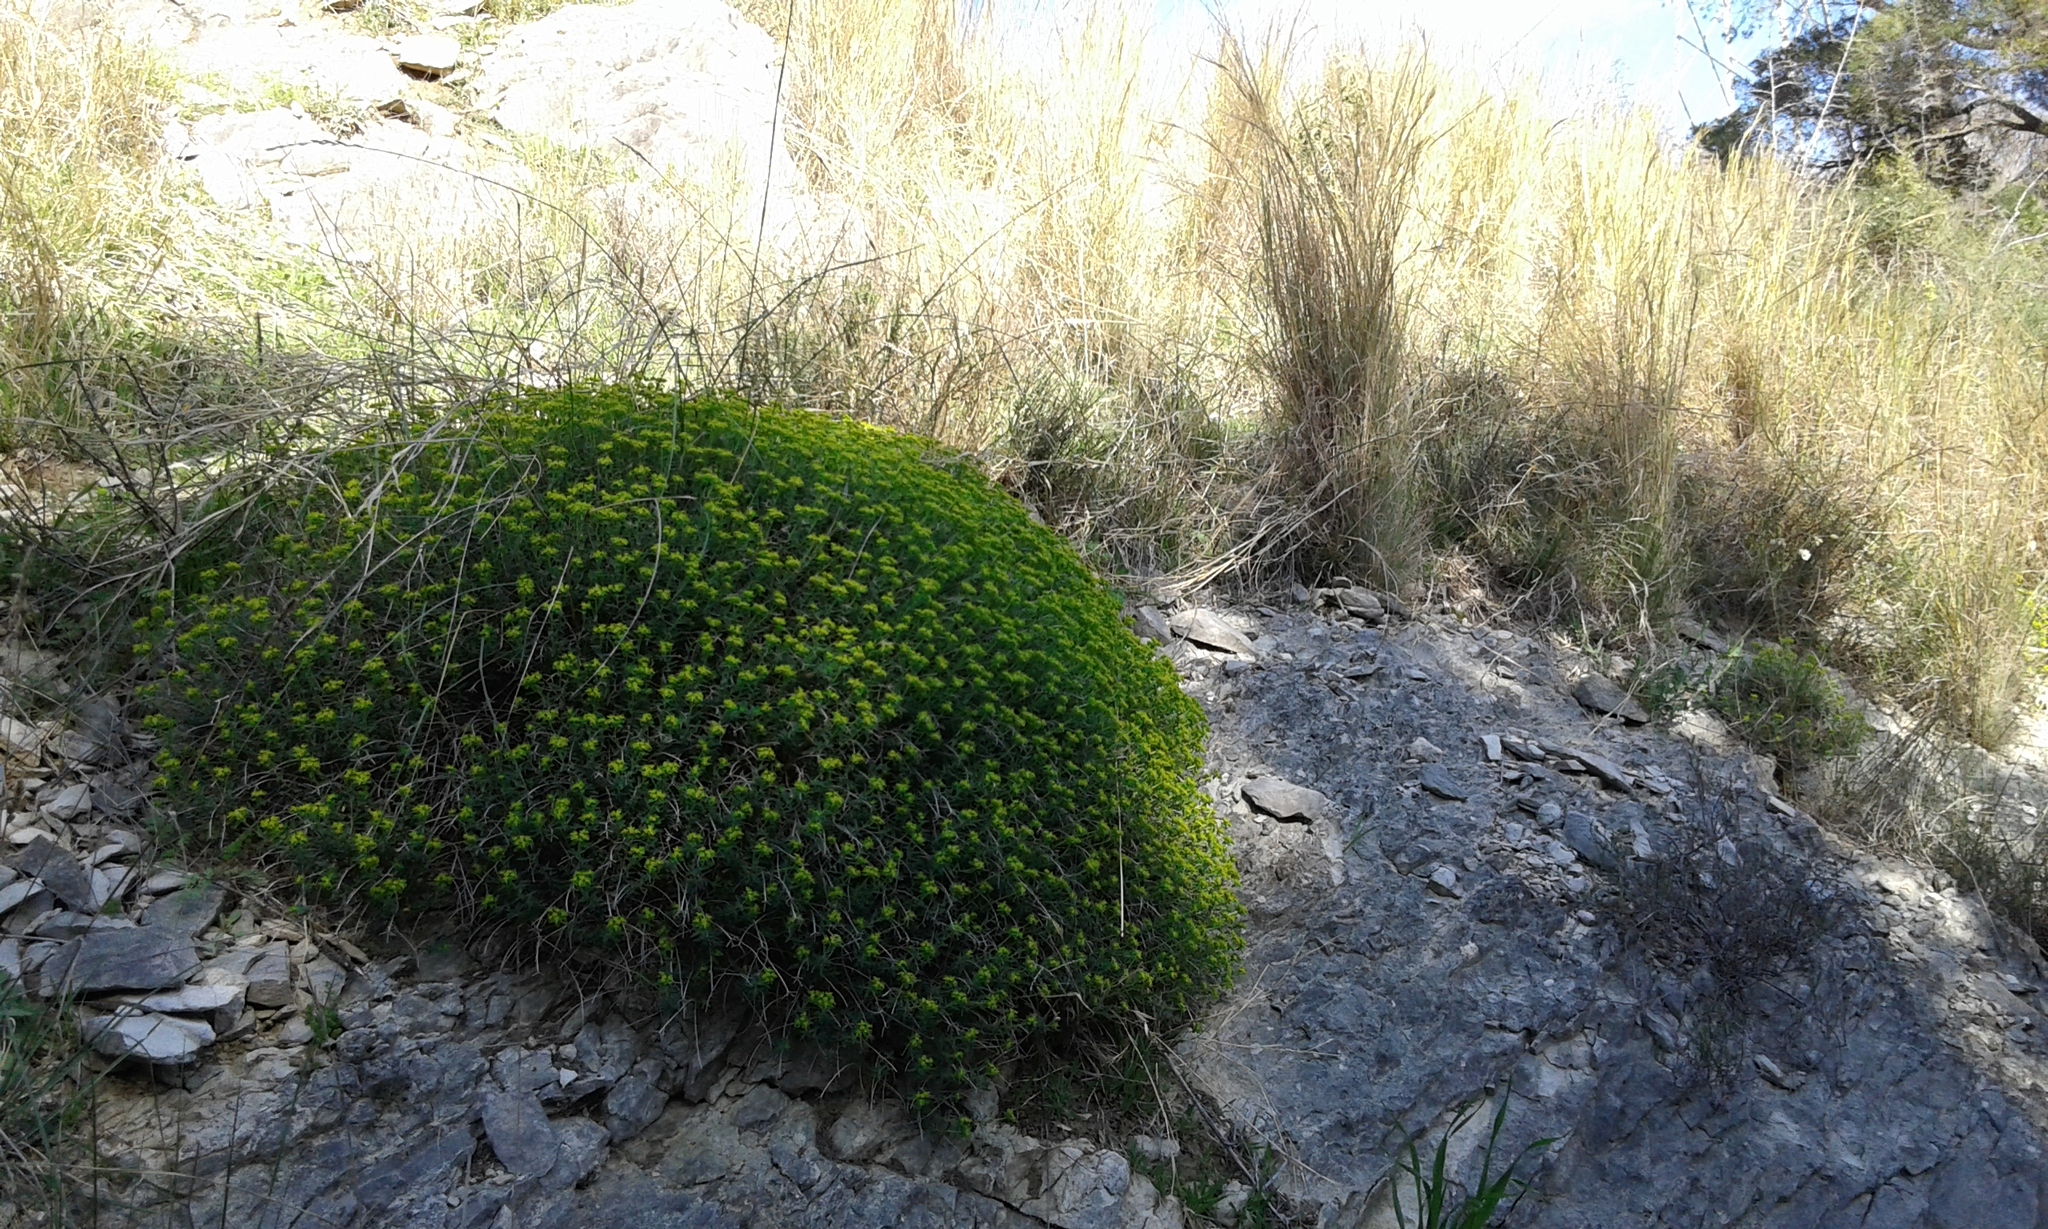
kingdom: Plantae
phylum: Tracheophyta
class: Magnoliopsida
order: Malpighiales
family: Euphorbiaceae
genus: Euphorbia
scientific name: Euphorbia spinosa
